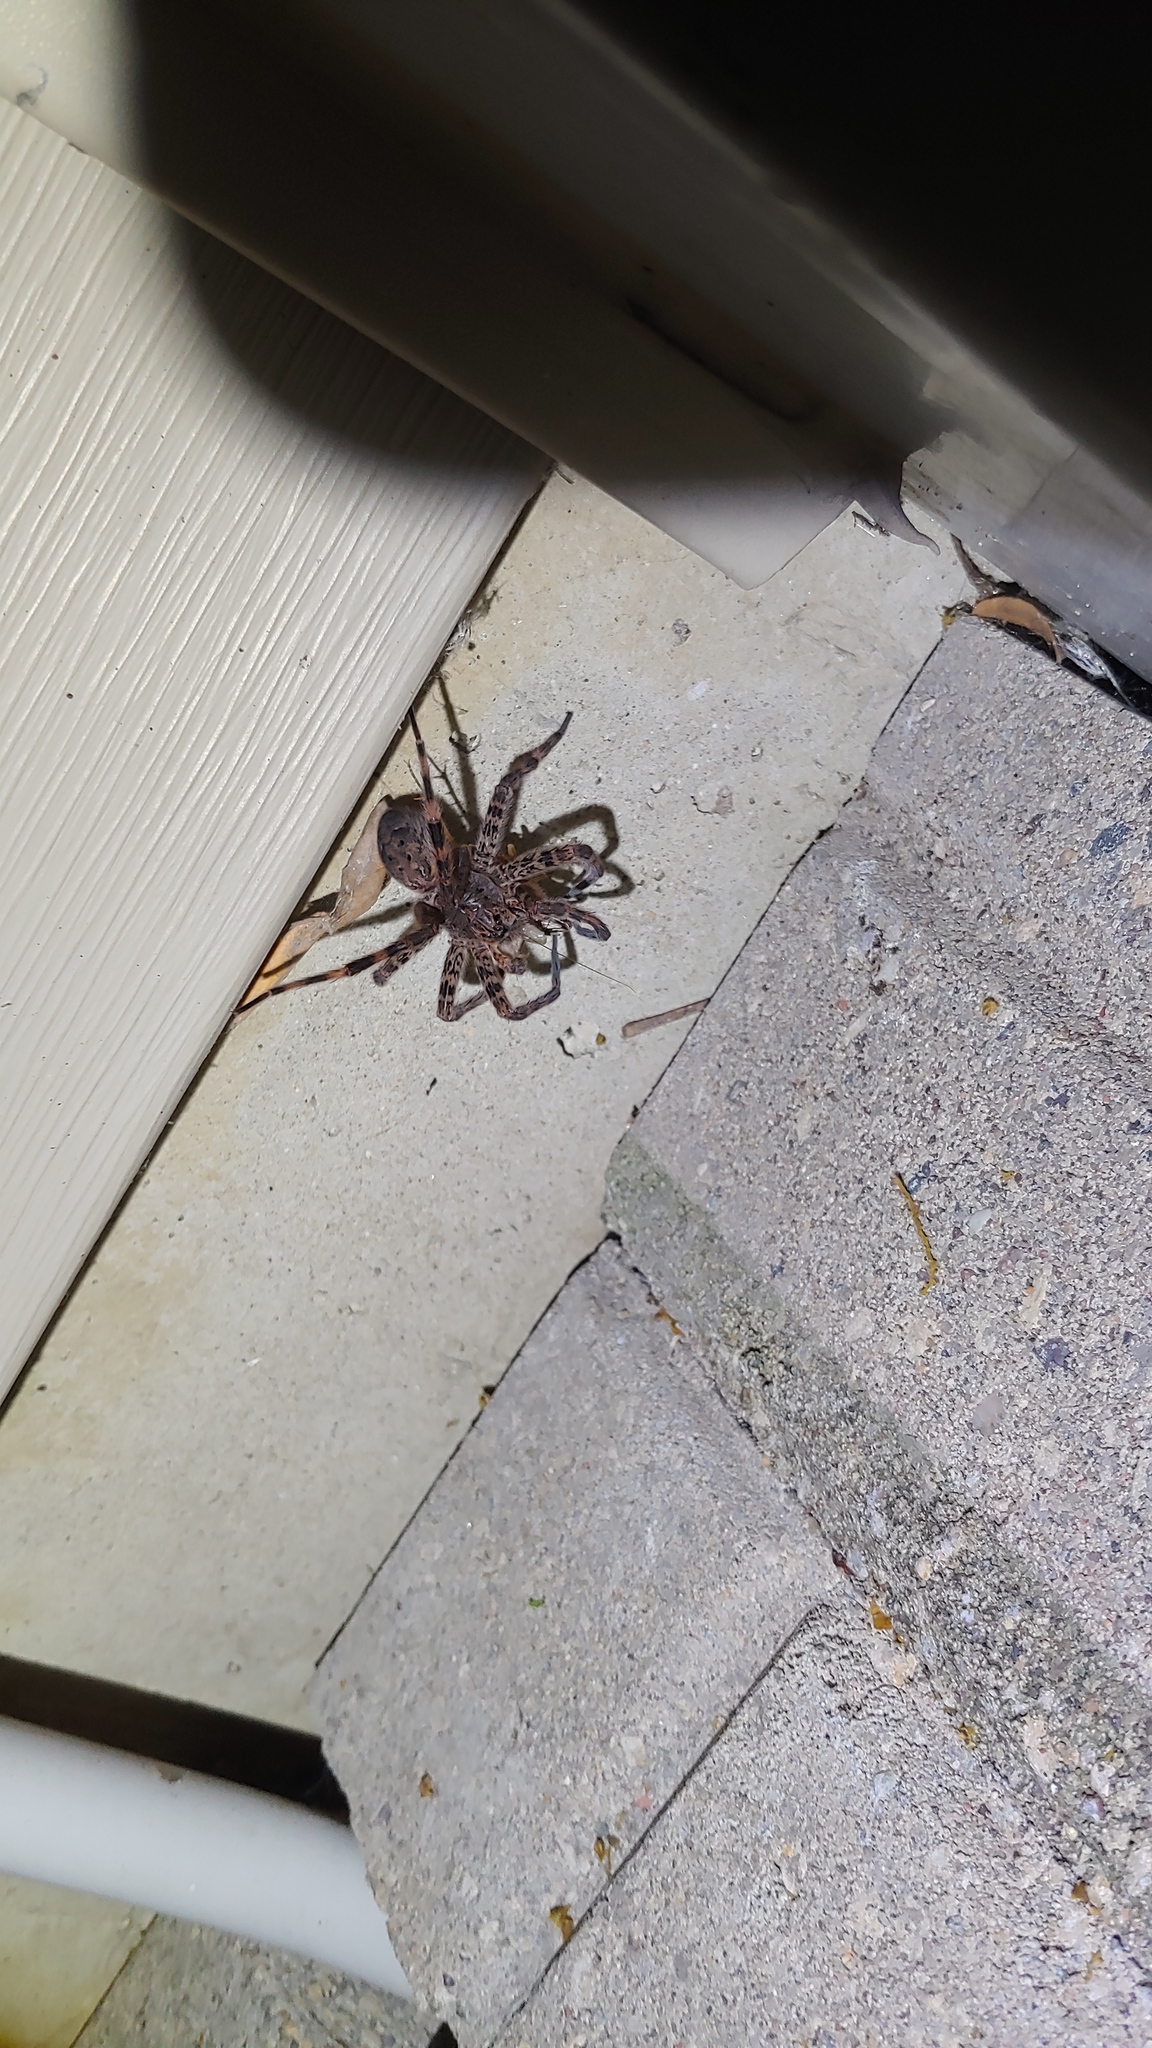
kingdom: Animalia
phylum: Arthropoda
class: Arachnida
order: Araneae
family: Pisauridae
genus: Dolomedes
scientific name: Dolomedes tenebrosus
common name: Dark fishing spider
